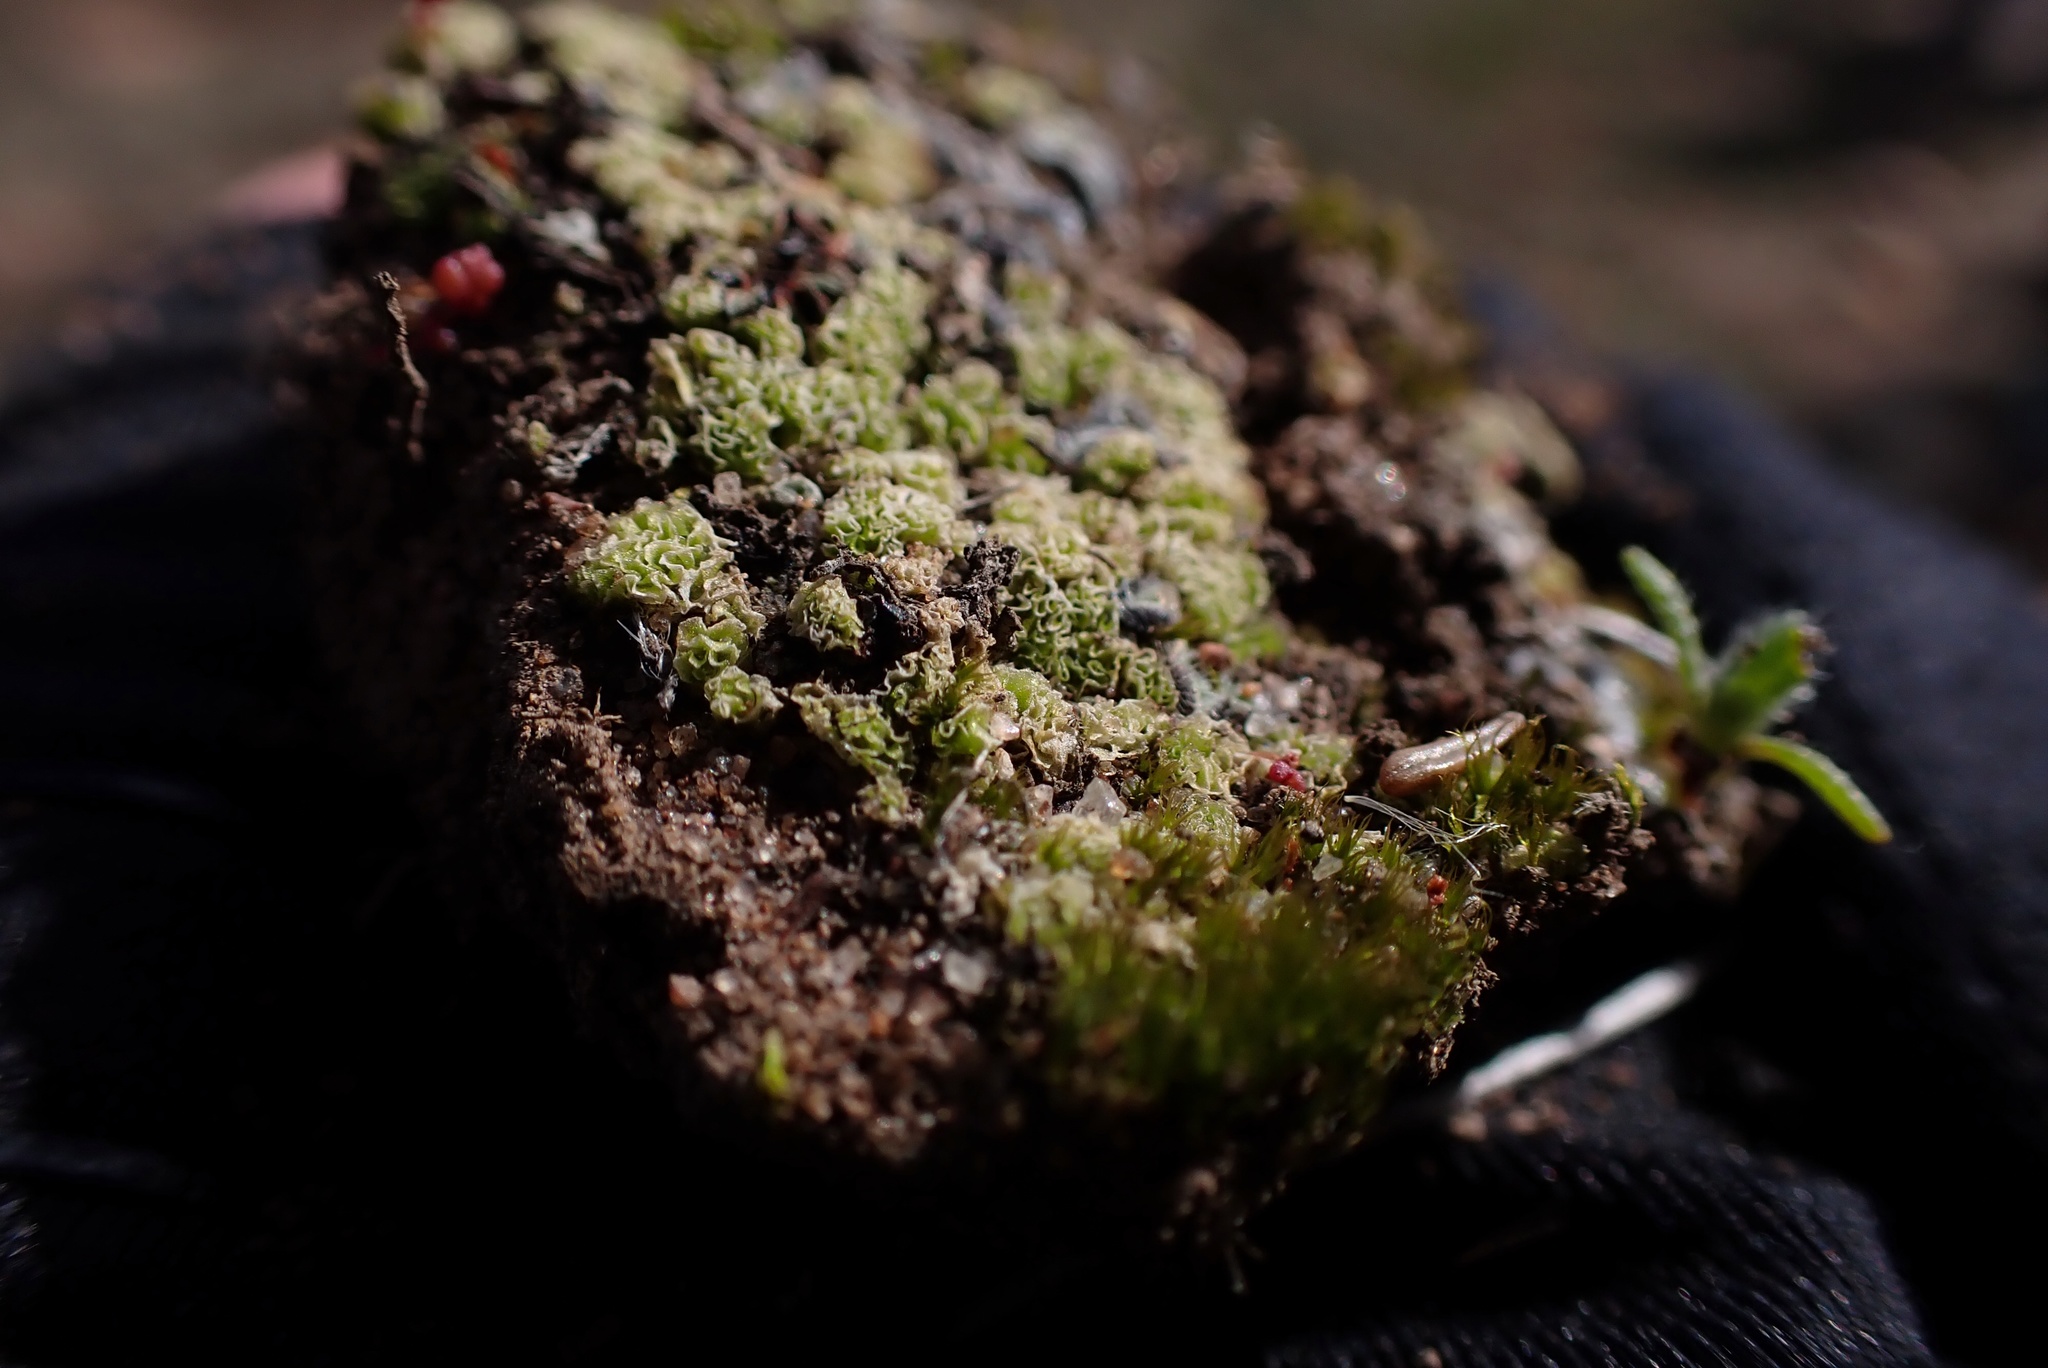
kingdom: Plantae
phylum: Marchantiophyta
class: Jungermanniopsida
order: Fossombroniales
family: Fossombroniaceae
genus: Fossombronia
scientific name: Fossombronia
